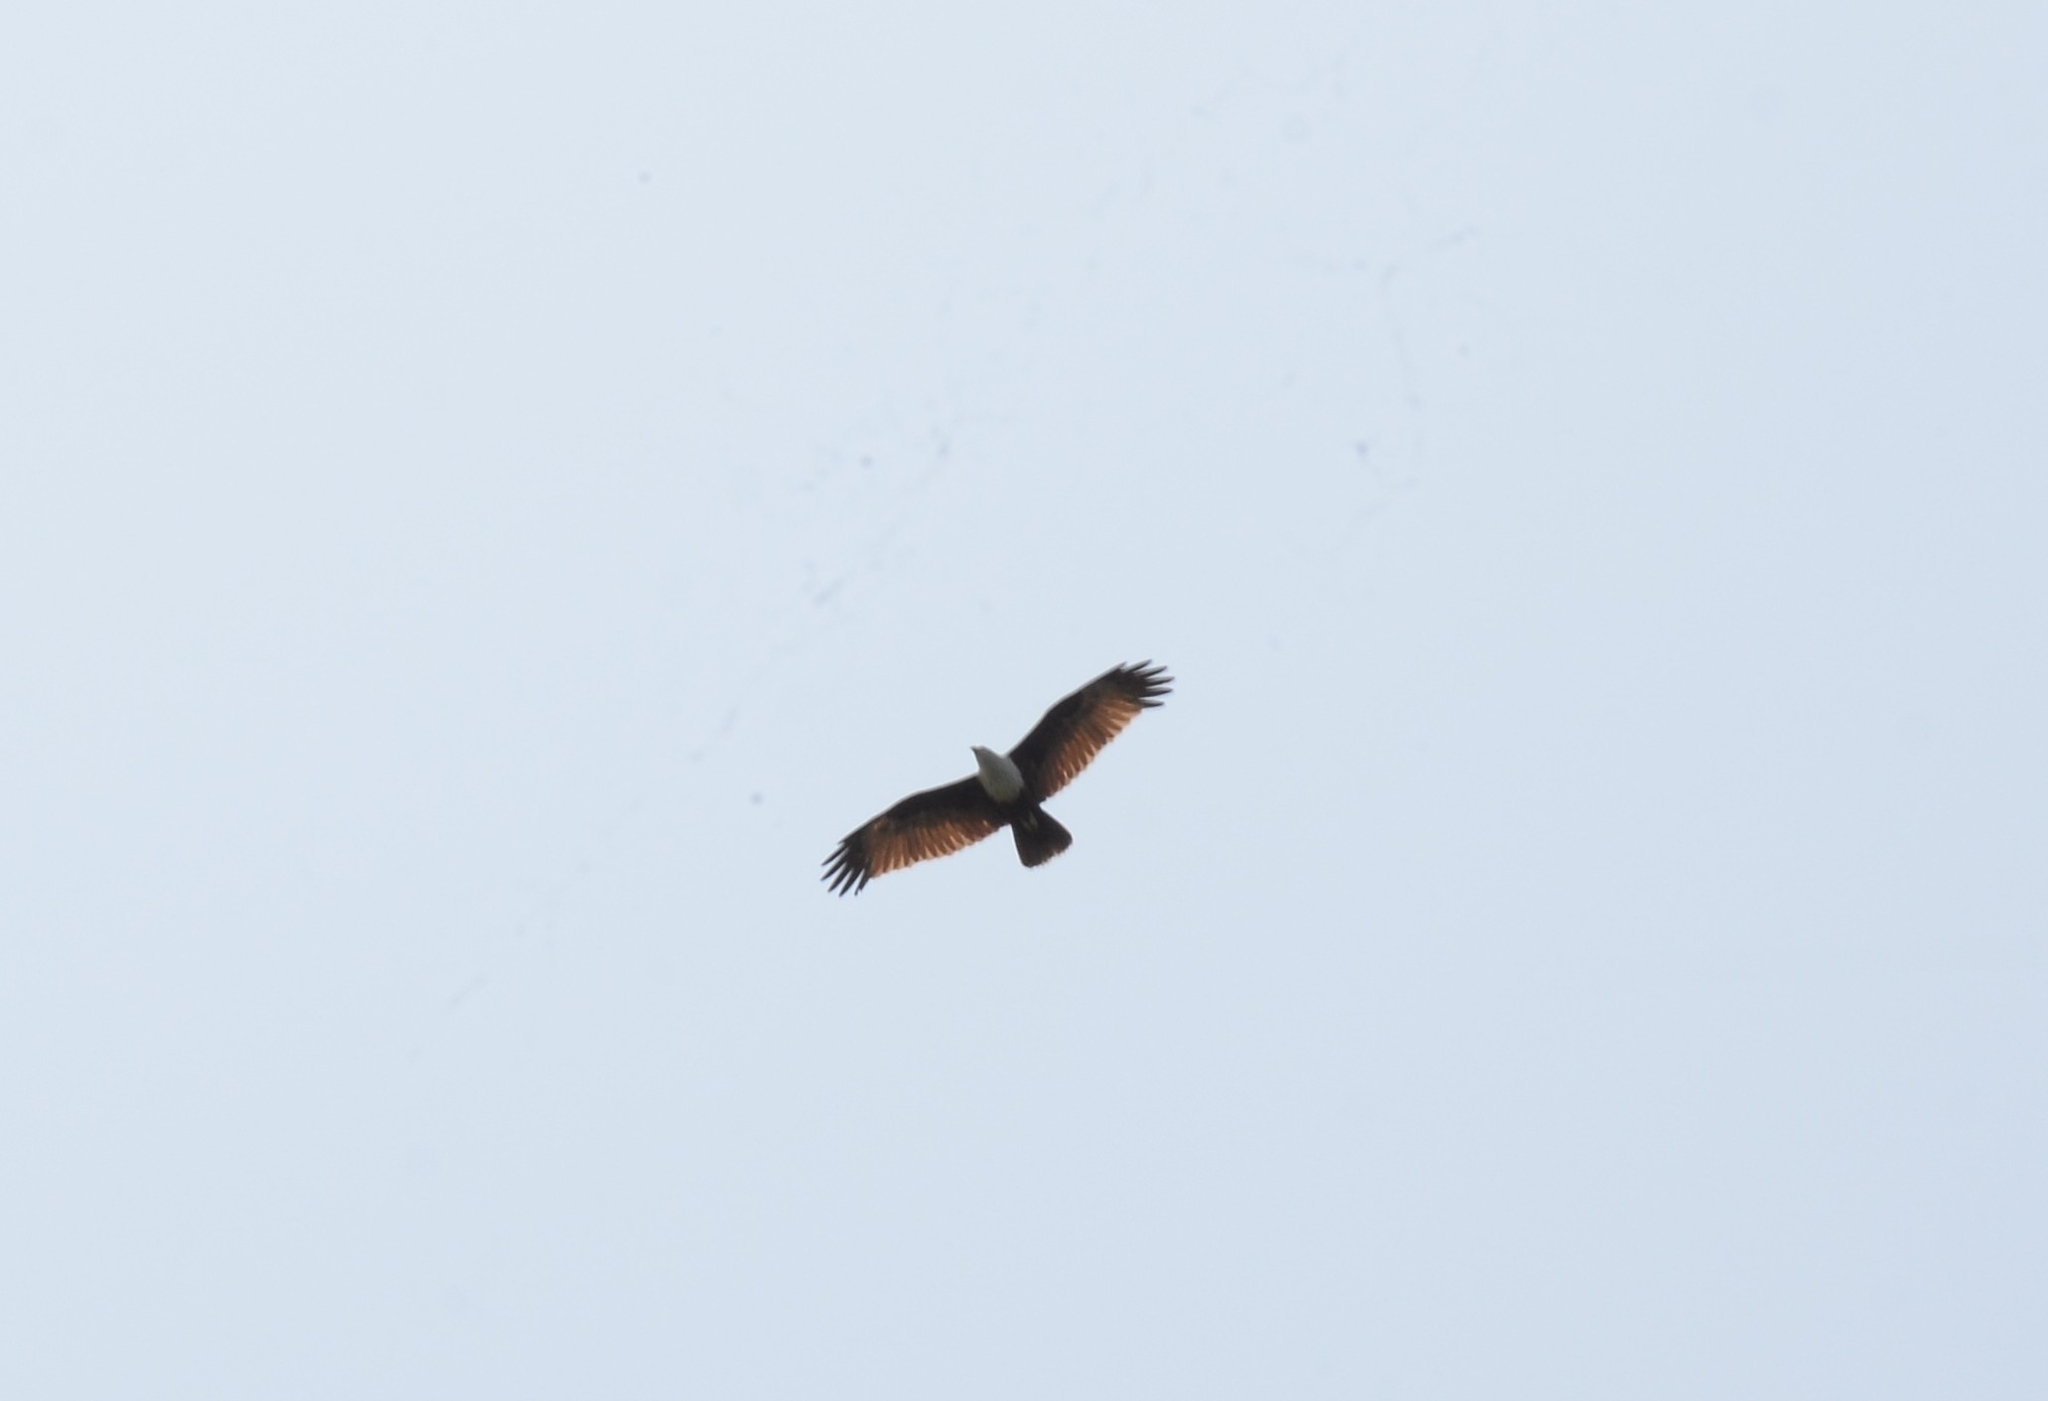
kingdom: Animalia
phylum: Chordata
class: Aves
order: Accipitriformes
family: Accipitridae
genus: Haliastur
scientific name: Haliastur indus
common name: Brahminy kite
